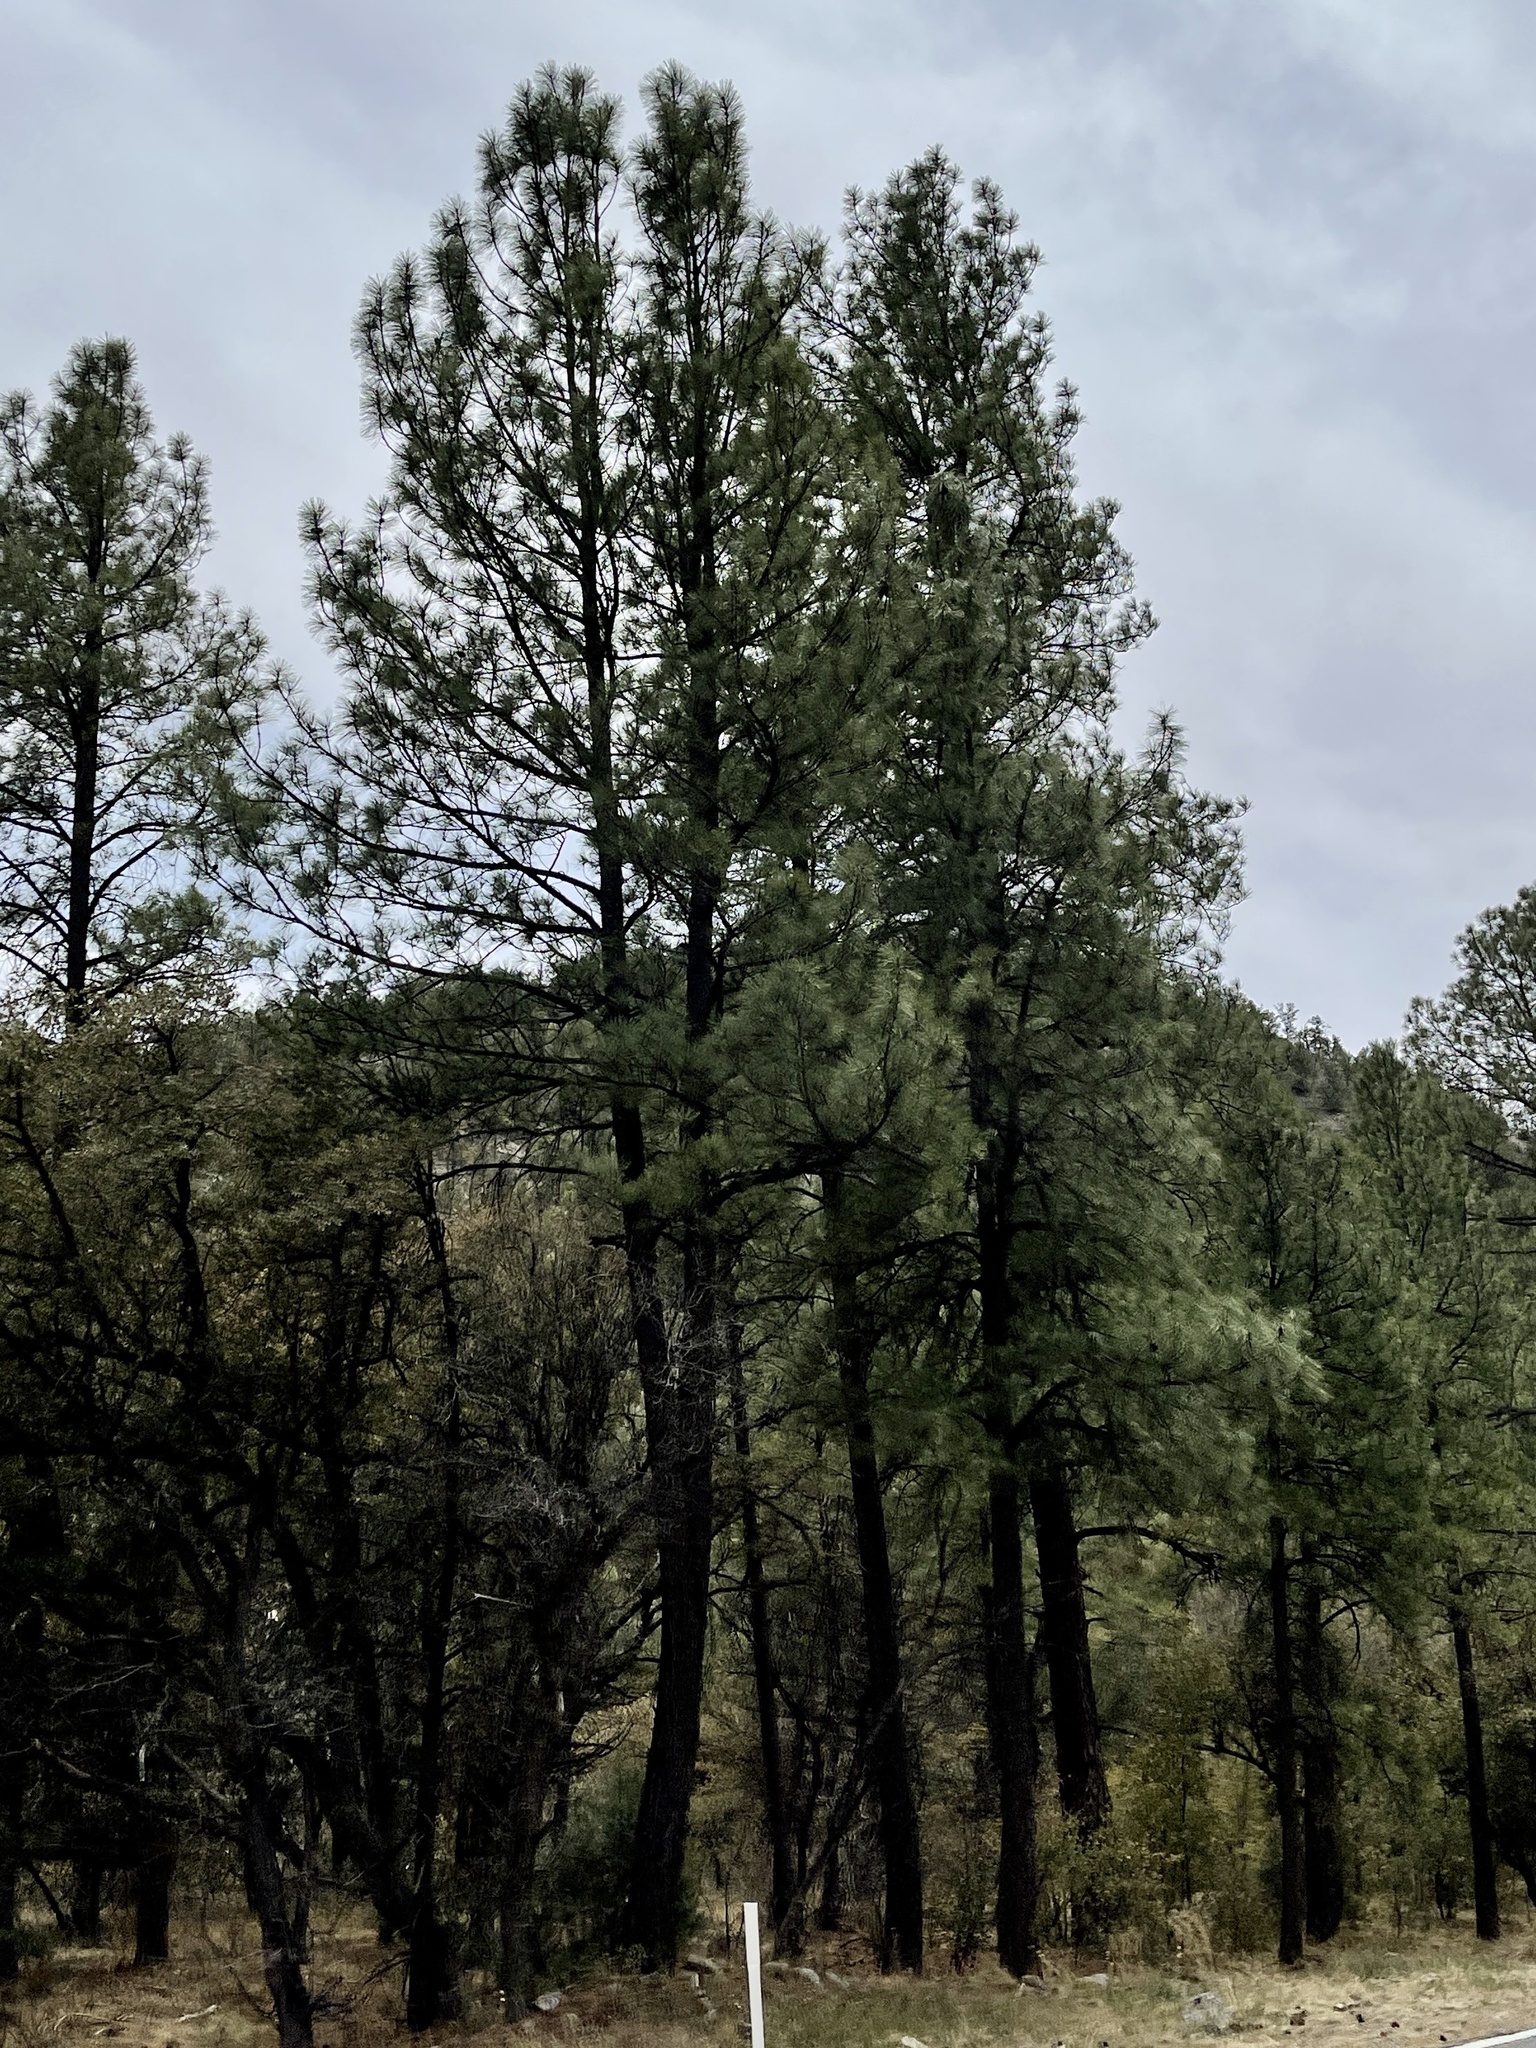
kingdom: Plantae
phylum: Tracheophyta
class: Pinopsida
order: Pinales
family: Pinaceae
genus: Pinus
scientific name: Pinus ponderosa
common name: Western yellow-pine
